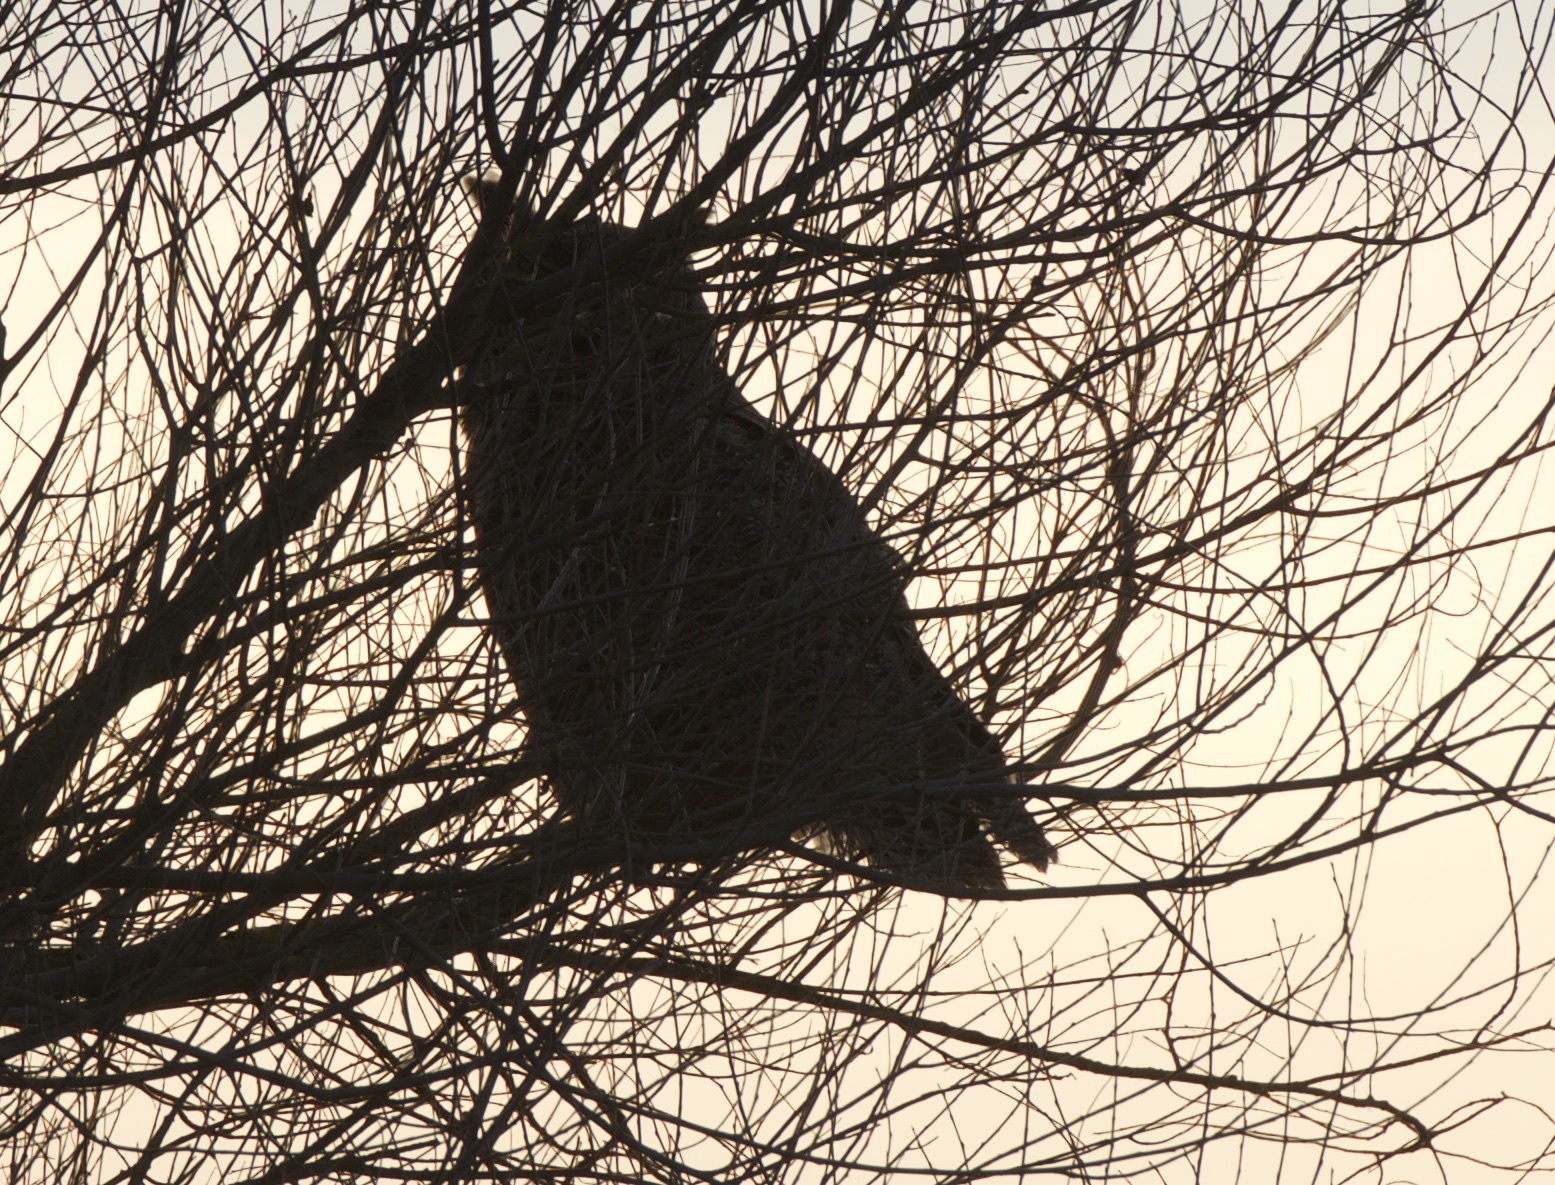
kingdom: Animalia
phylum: Chordata
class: Aves
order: Strigiformes
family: Strigidae
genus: Bubo
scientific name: Bubo virginianus
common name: Great horned owl
